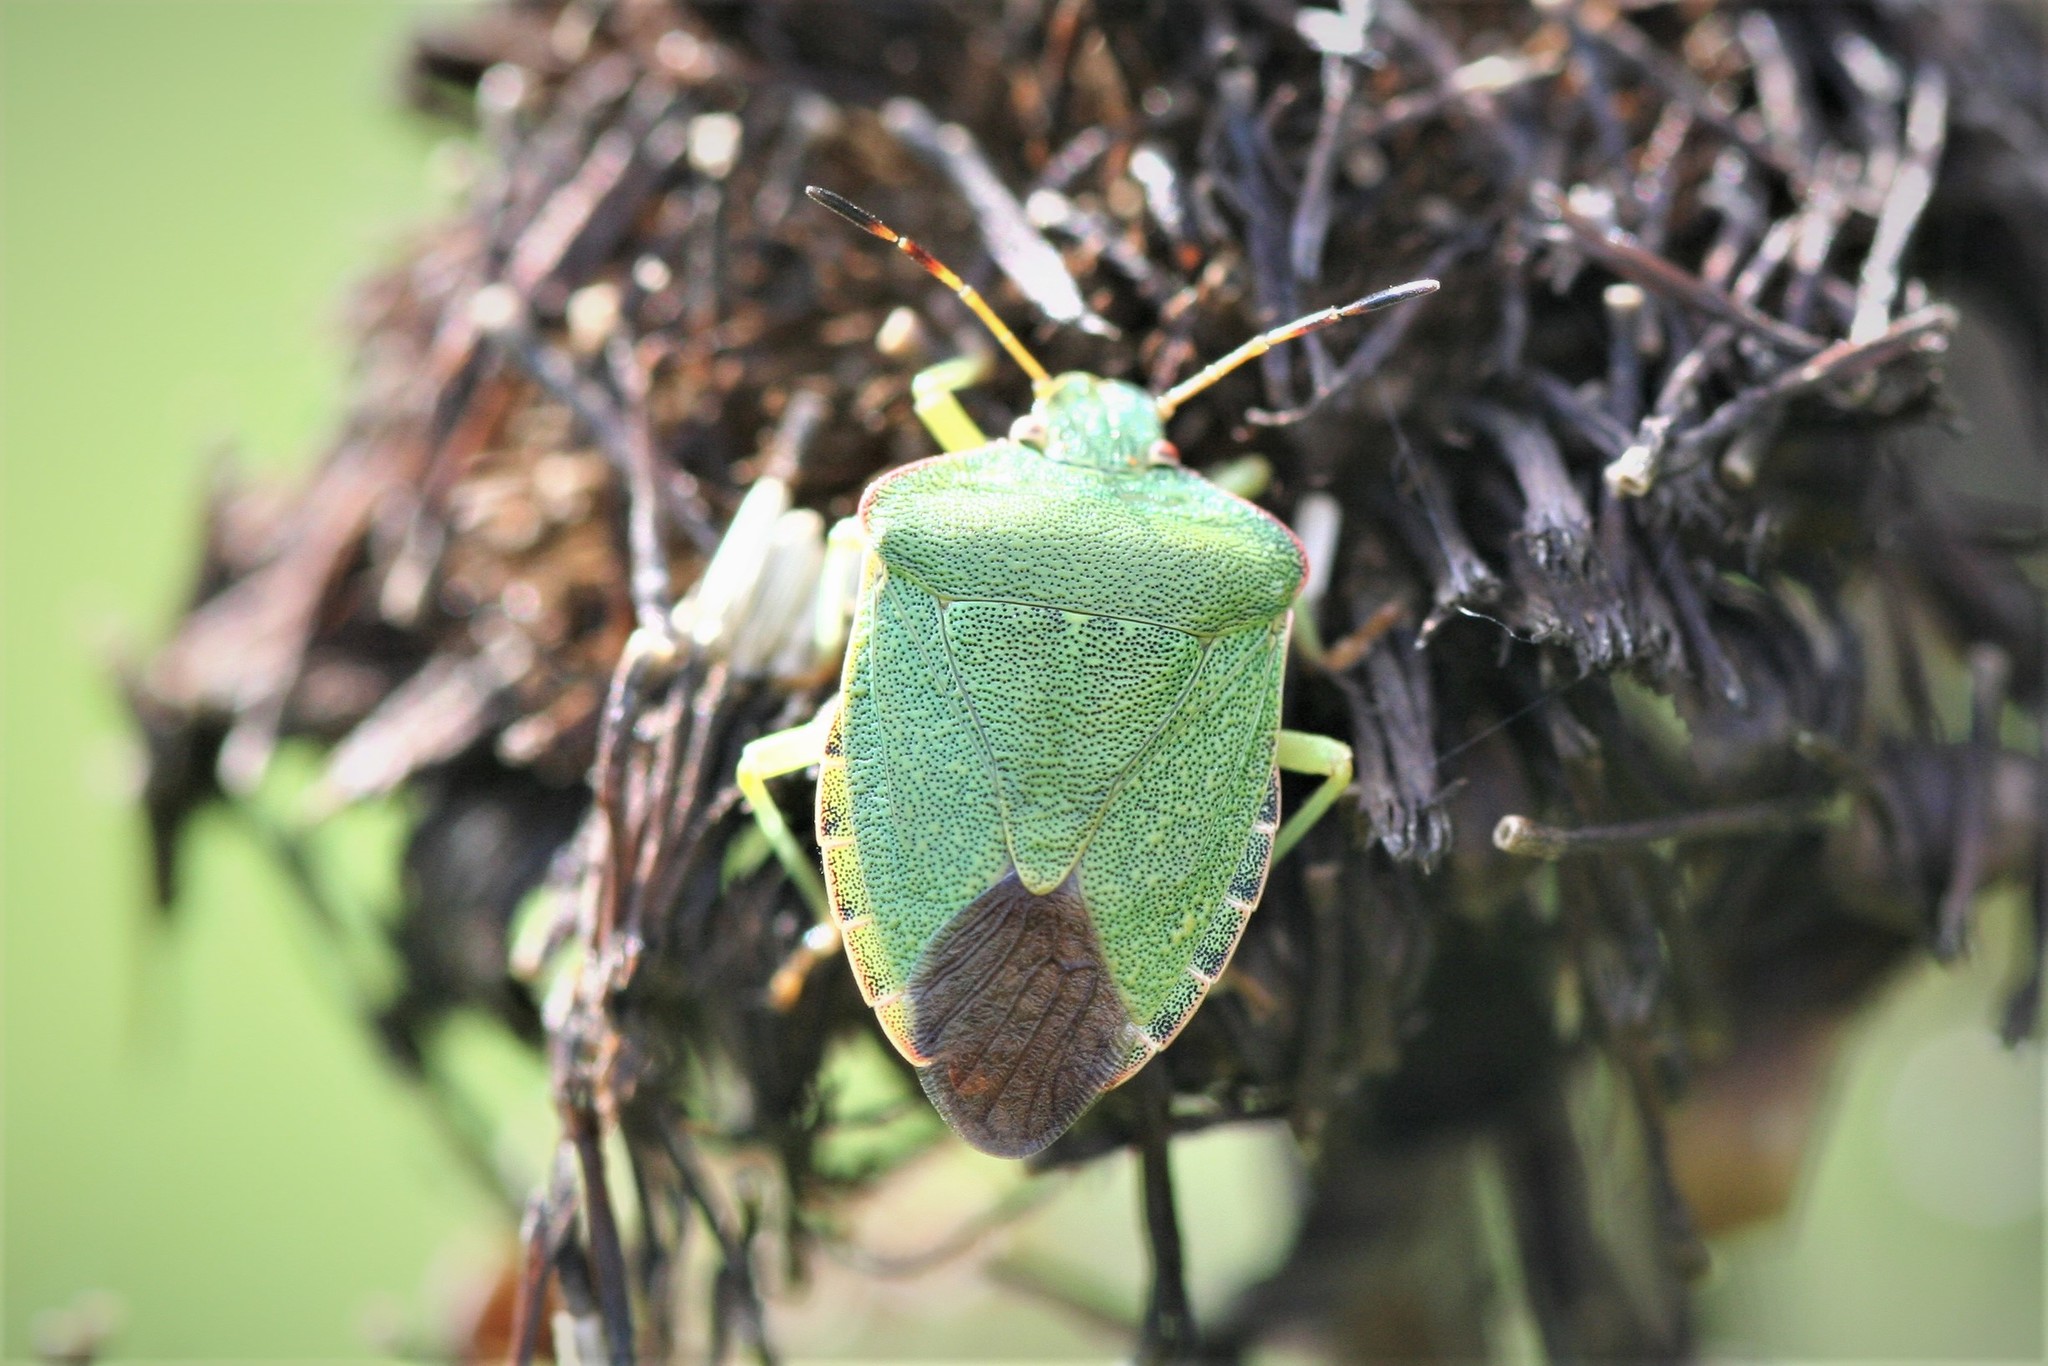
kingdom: Animalia
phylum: Arthropoda
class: Insecta
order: Hemiptera
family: Pentatomidae
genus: Palomena
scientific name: Palomena prasina
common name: Green shieldbug
